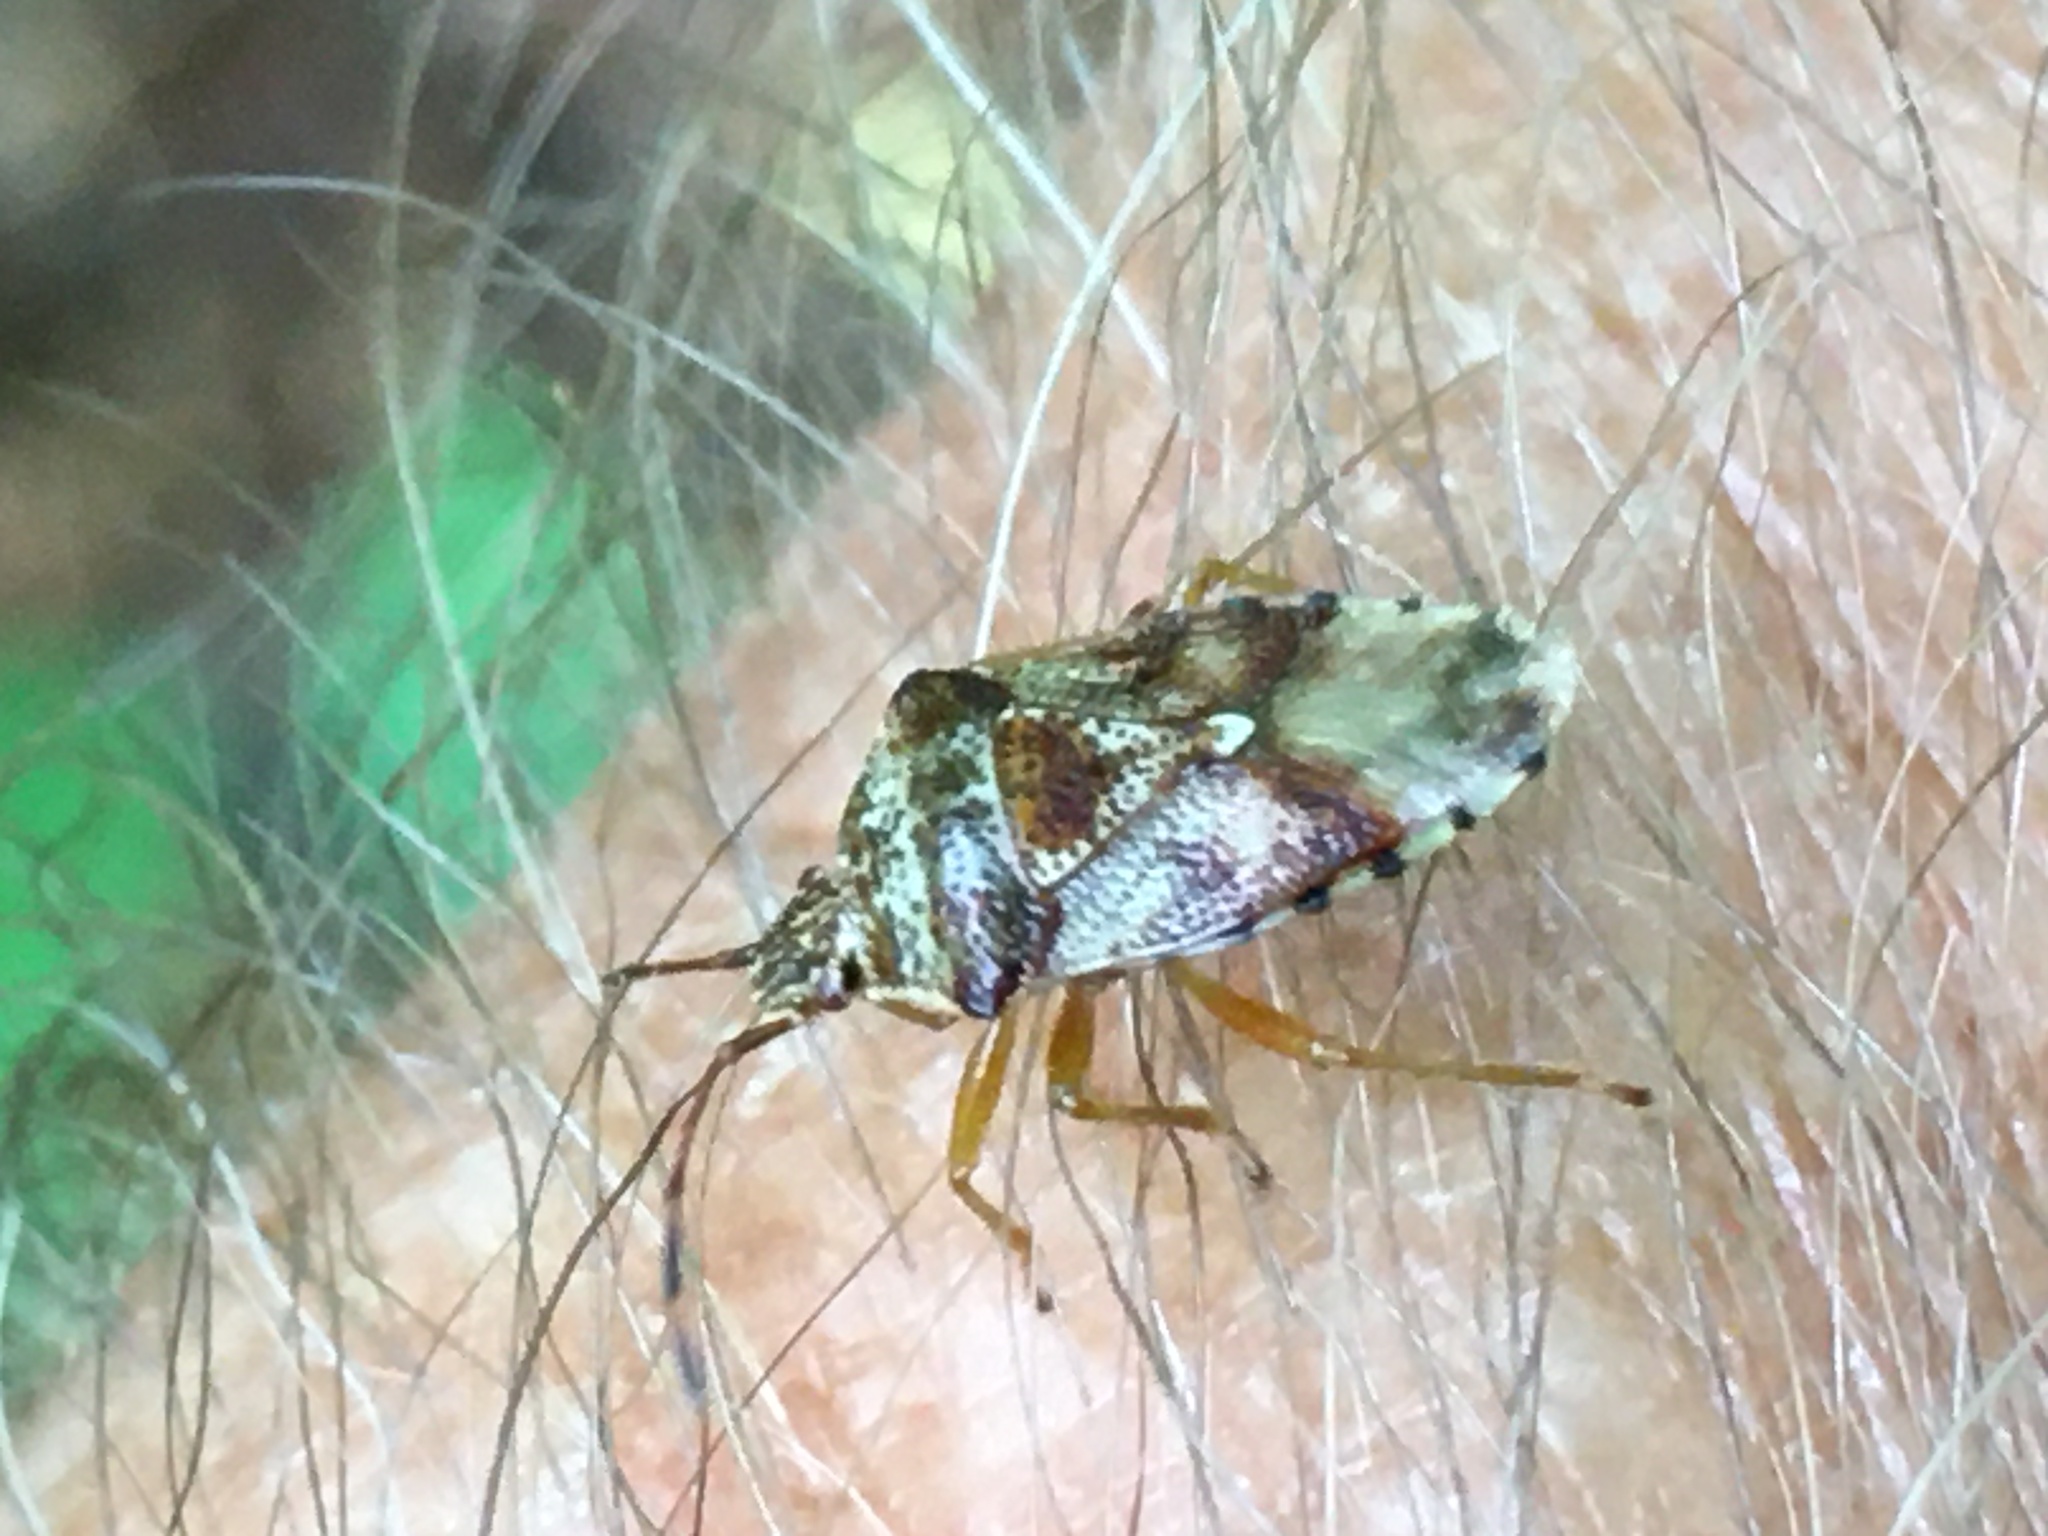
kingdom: Animalia
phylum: Arthropoda
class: Insecta
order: Hemiptera
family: Acanthosomatidae
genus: Elasmucha
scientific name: Elasmucha lateralis
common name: Shield bug
